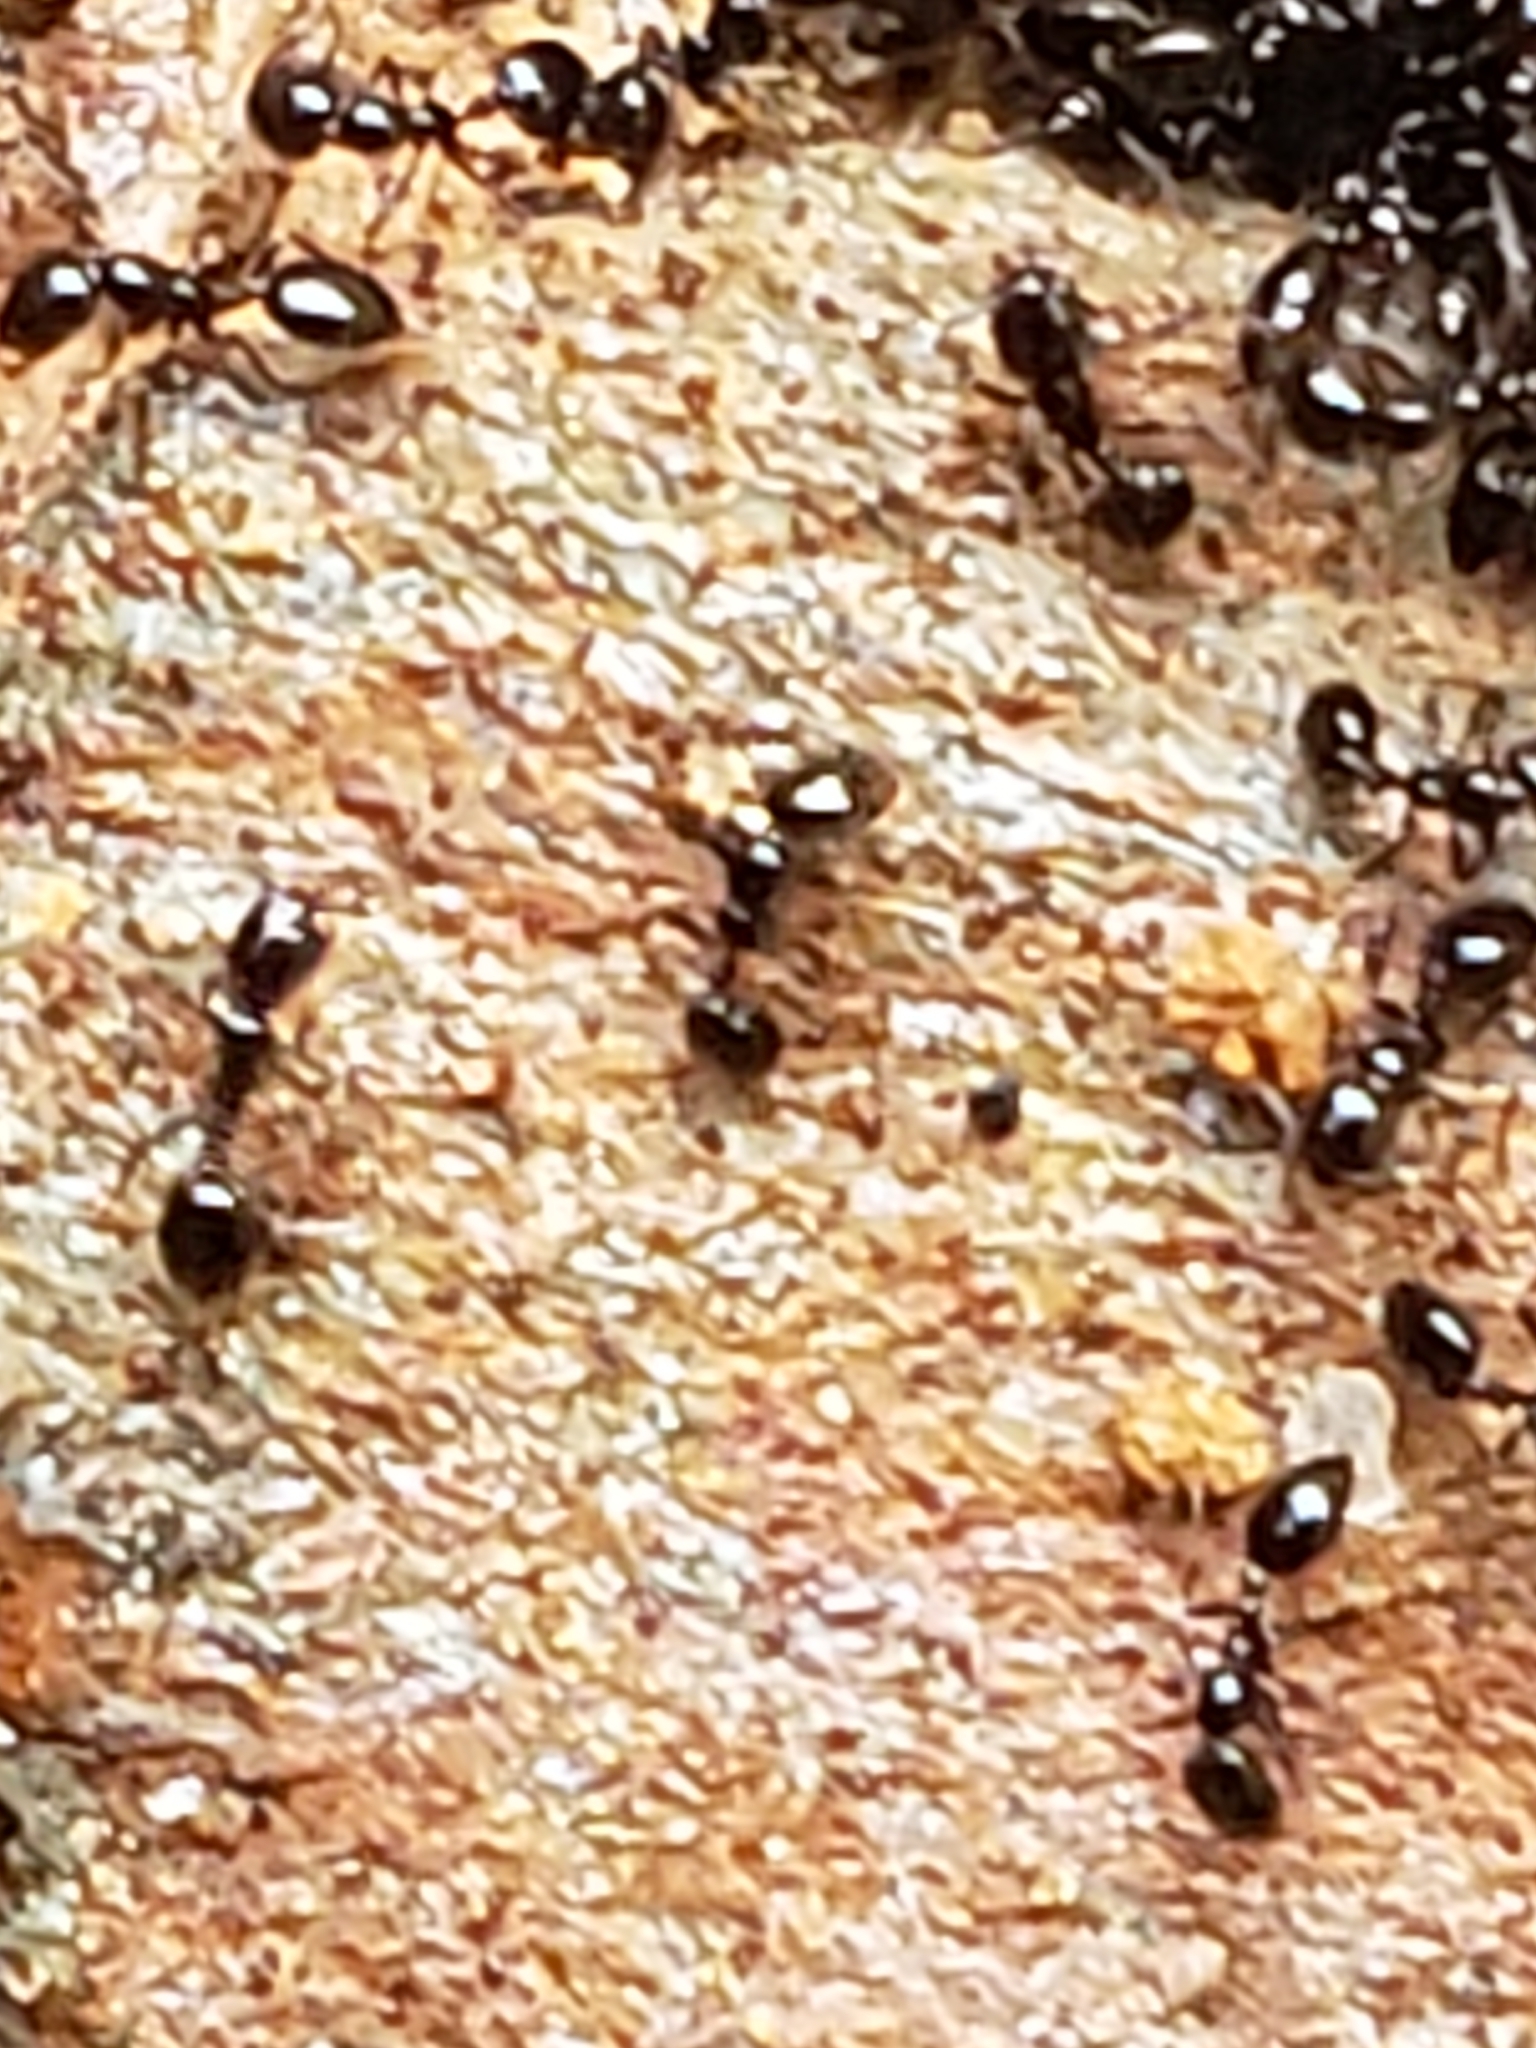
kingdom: Animalia
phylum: Arthropoda
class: Insecta
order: Hymenoptera
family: Formicidae
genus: Monomorium
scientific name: Monomorium minimum
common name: Little black ant
